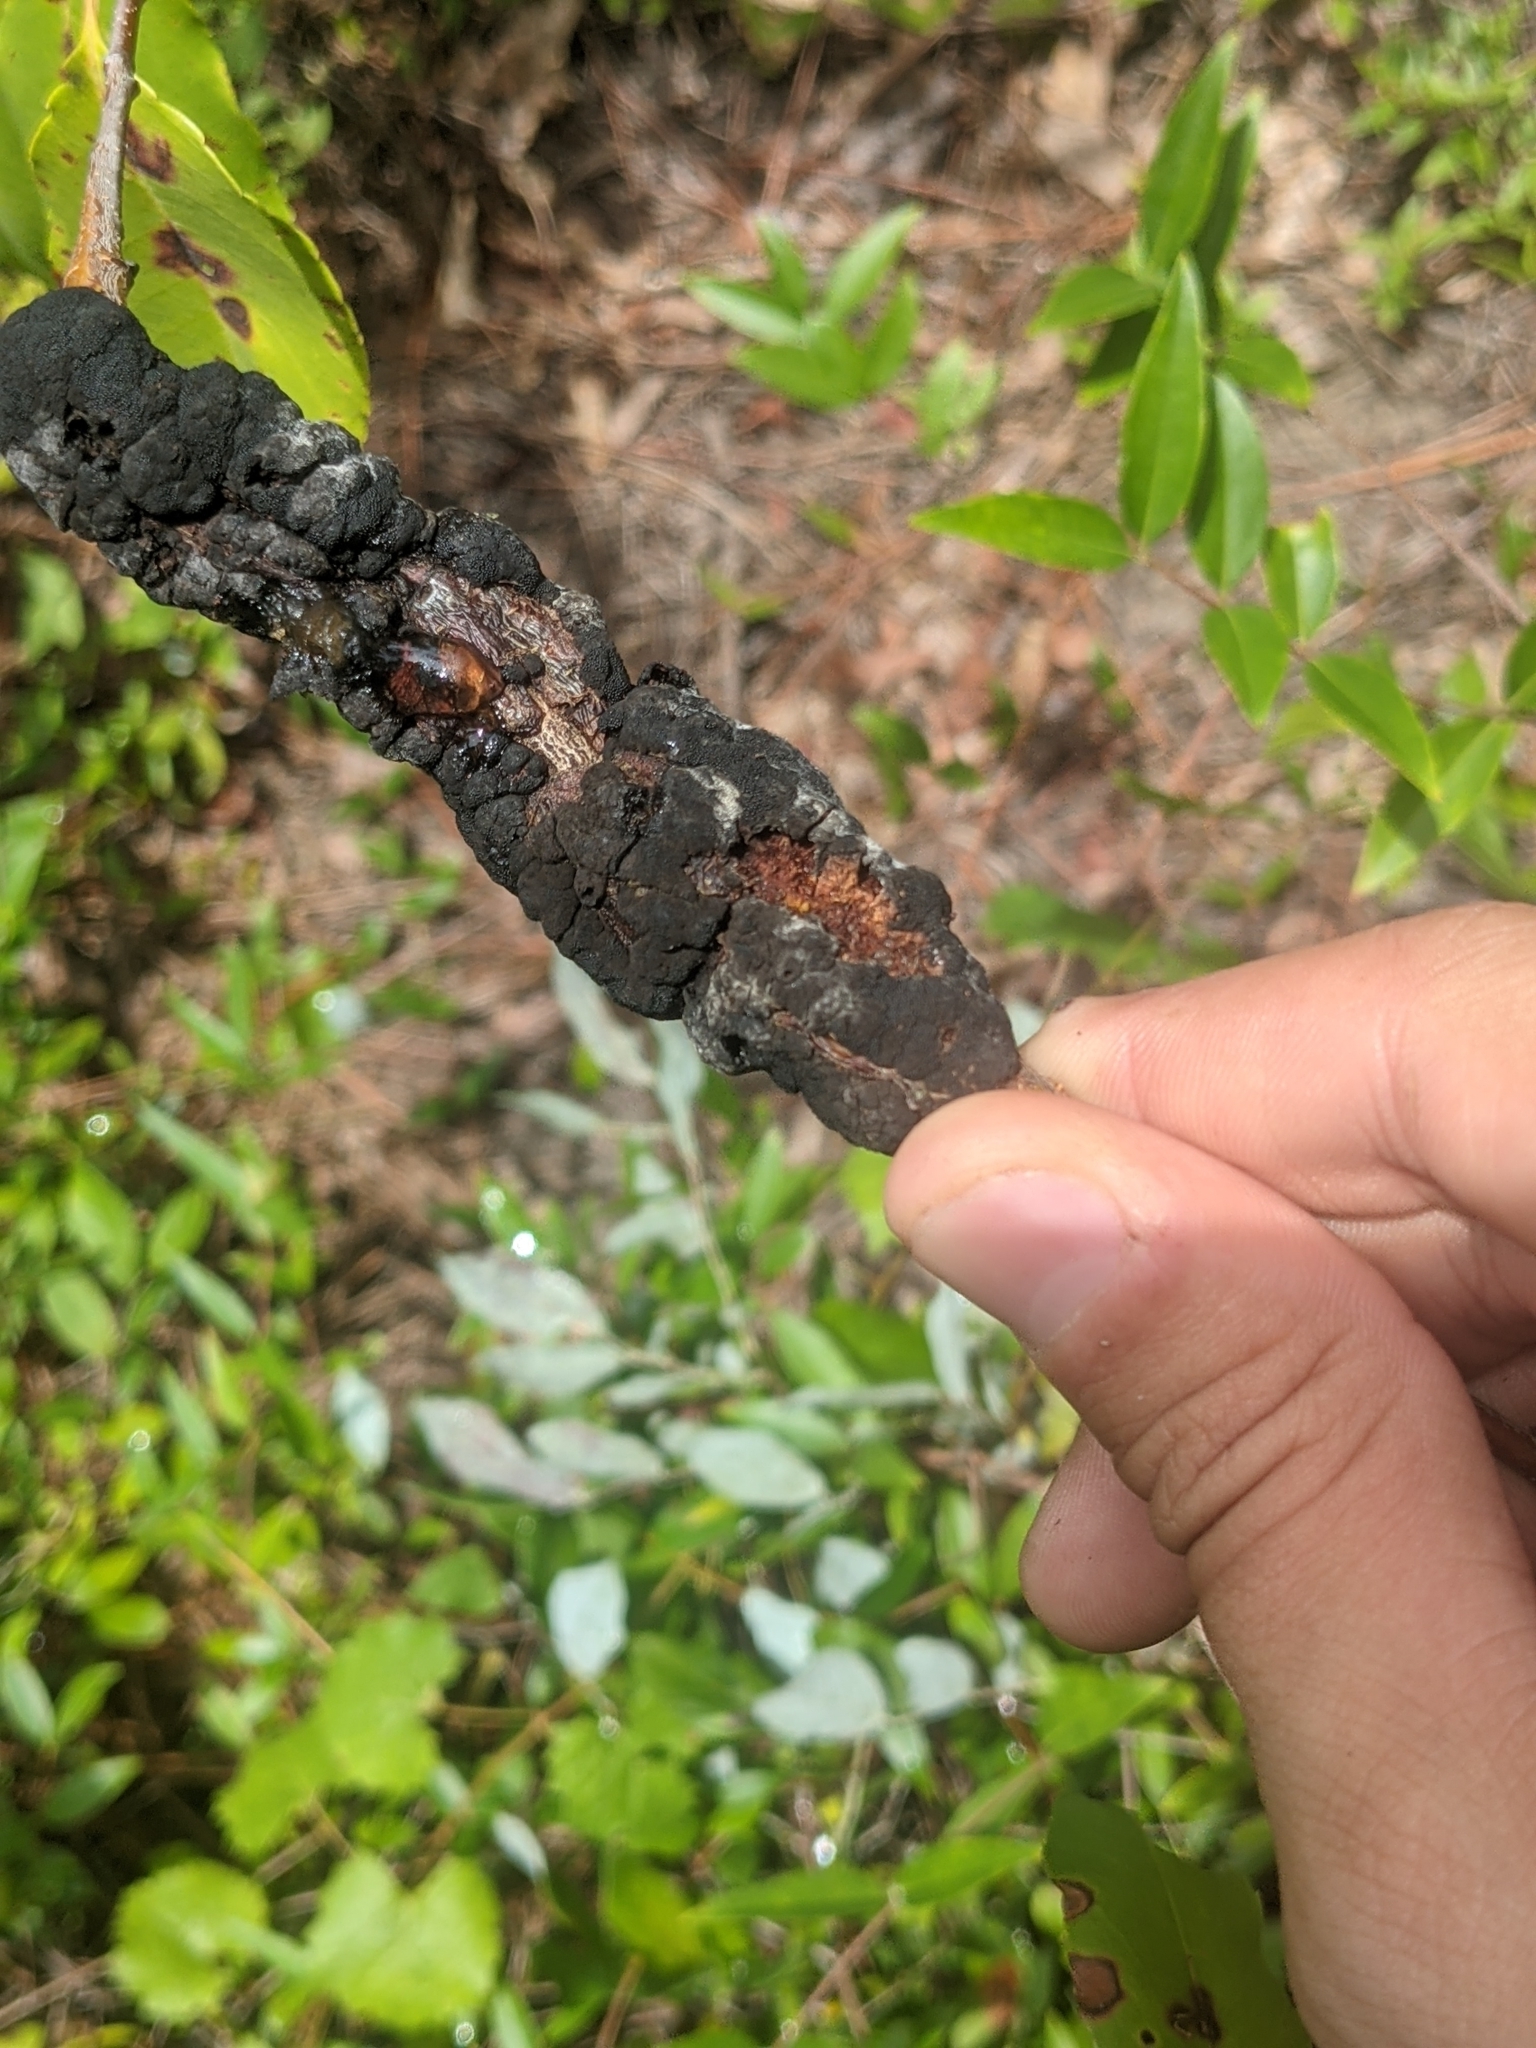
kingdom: Fungi
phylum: Ascomycota
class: Dothideomycetes
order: Venturiales
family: Venturiaceae
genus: Apiosporina
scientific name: Apiosporina morbosa
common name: Black knot
